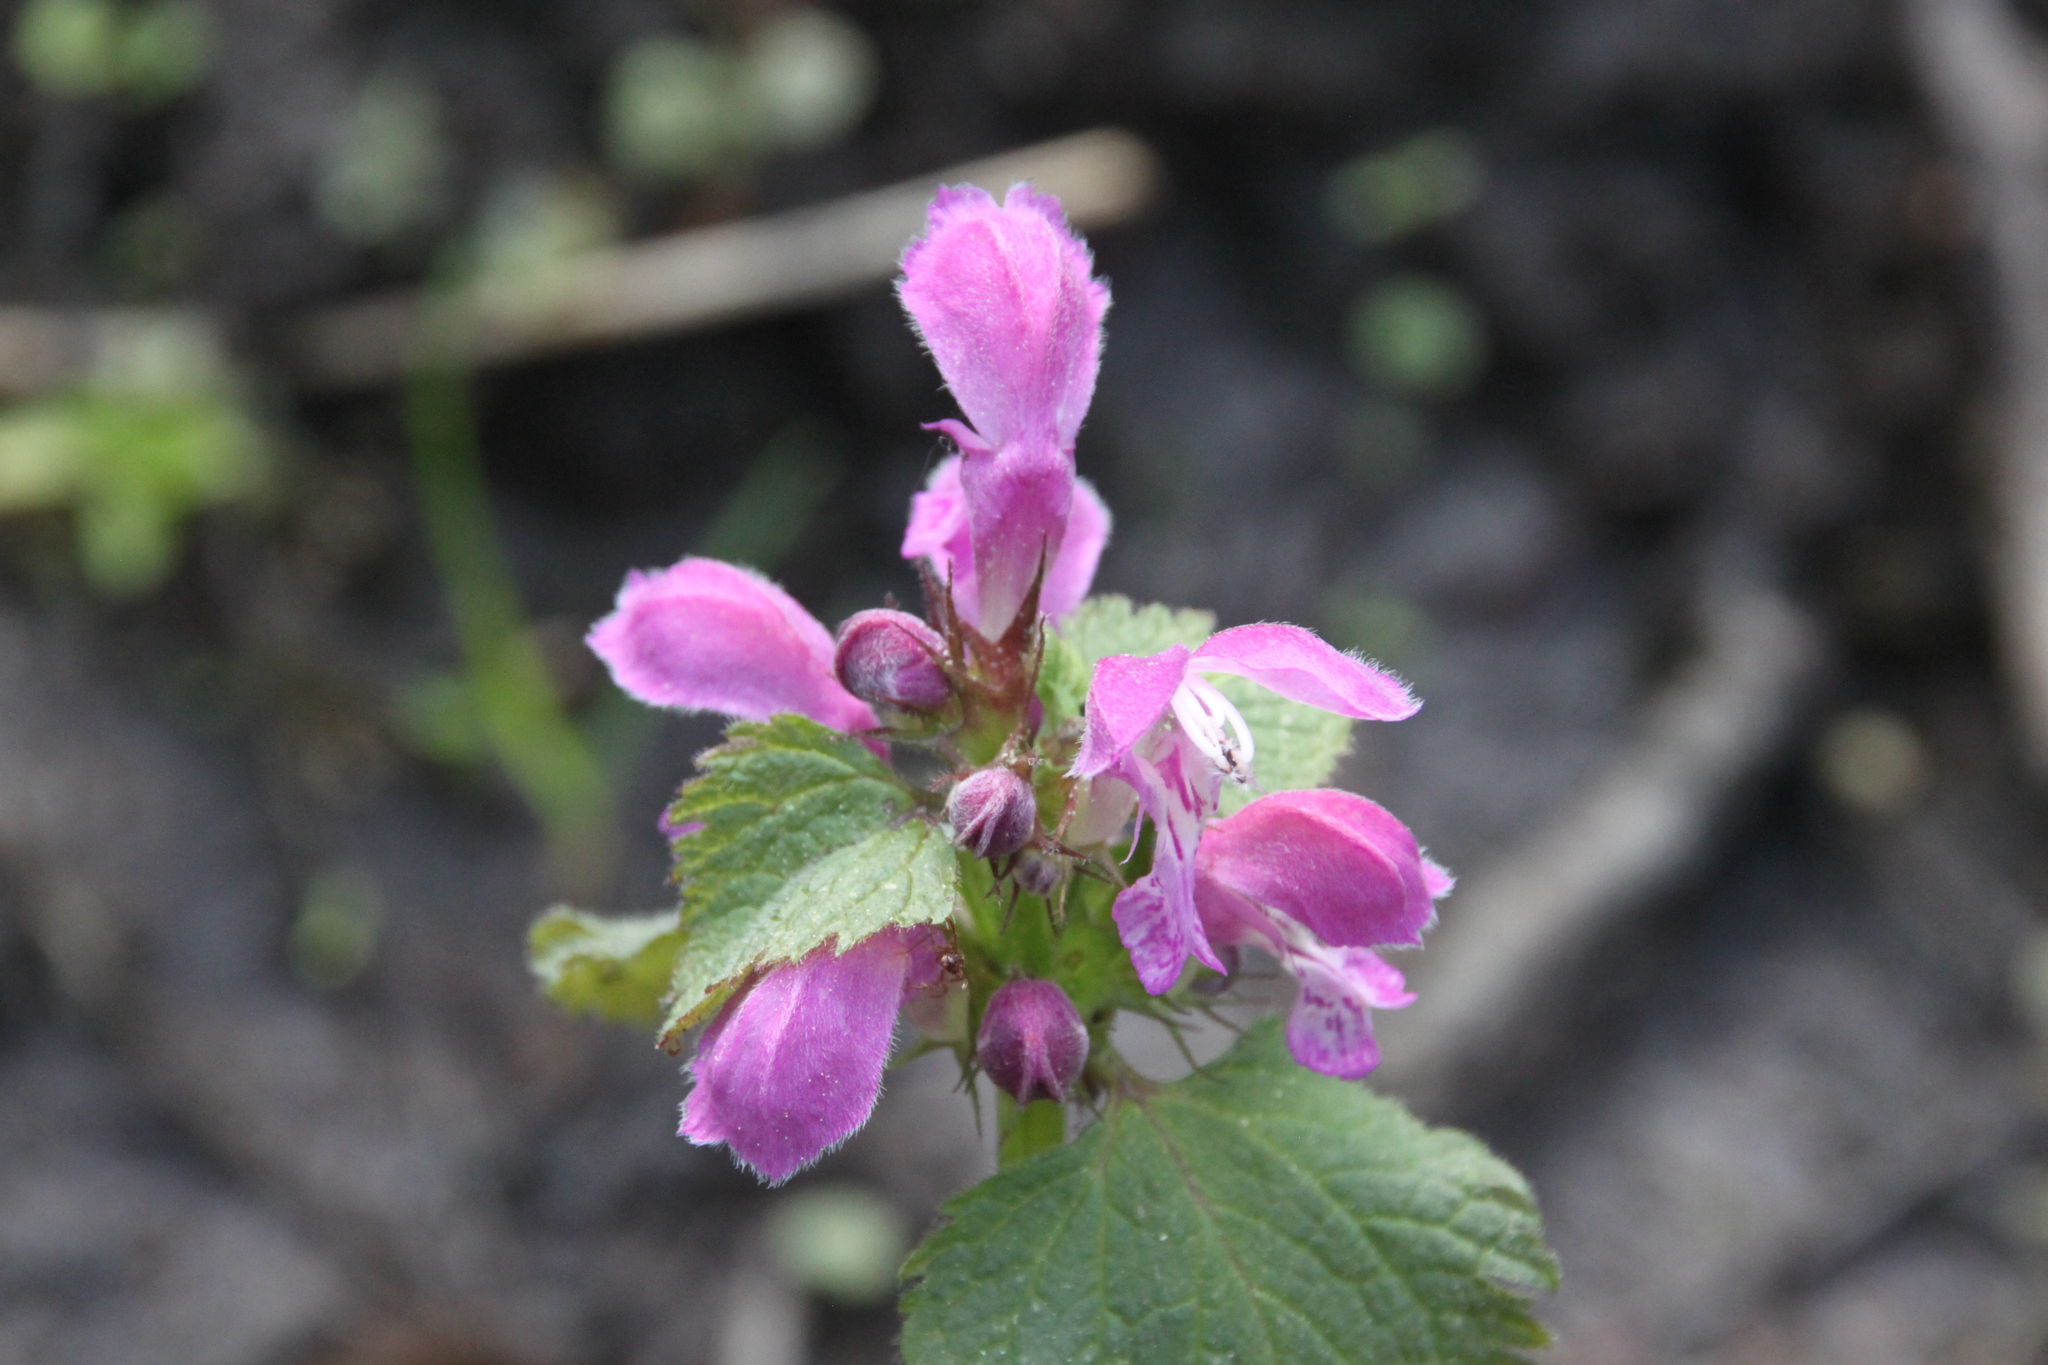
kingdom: Plantae
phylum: Tracheophyta
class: Magnoliopsida
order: Lamiales
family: Lamiaceae
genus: Lamium
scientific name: Lamium maculatum
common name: Spotted dead-nettle
